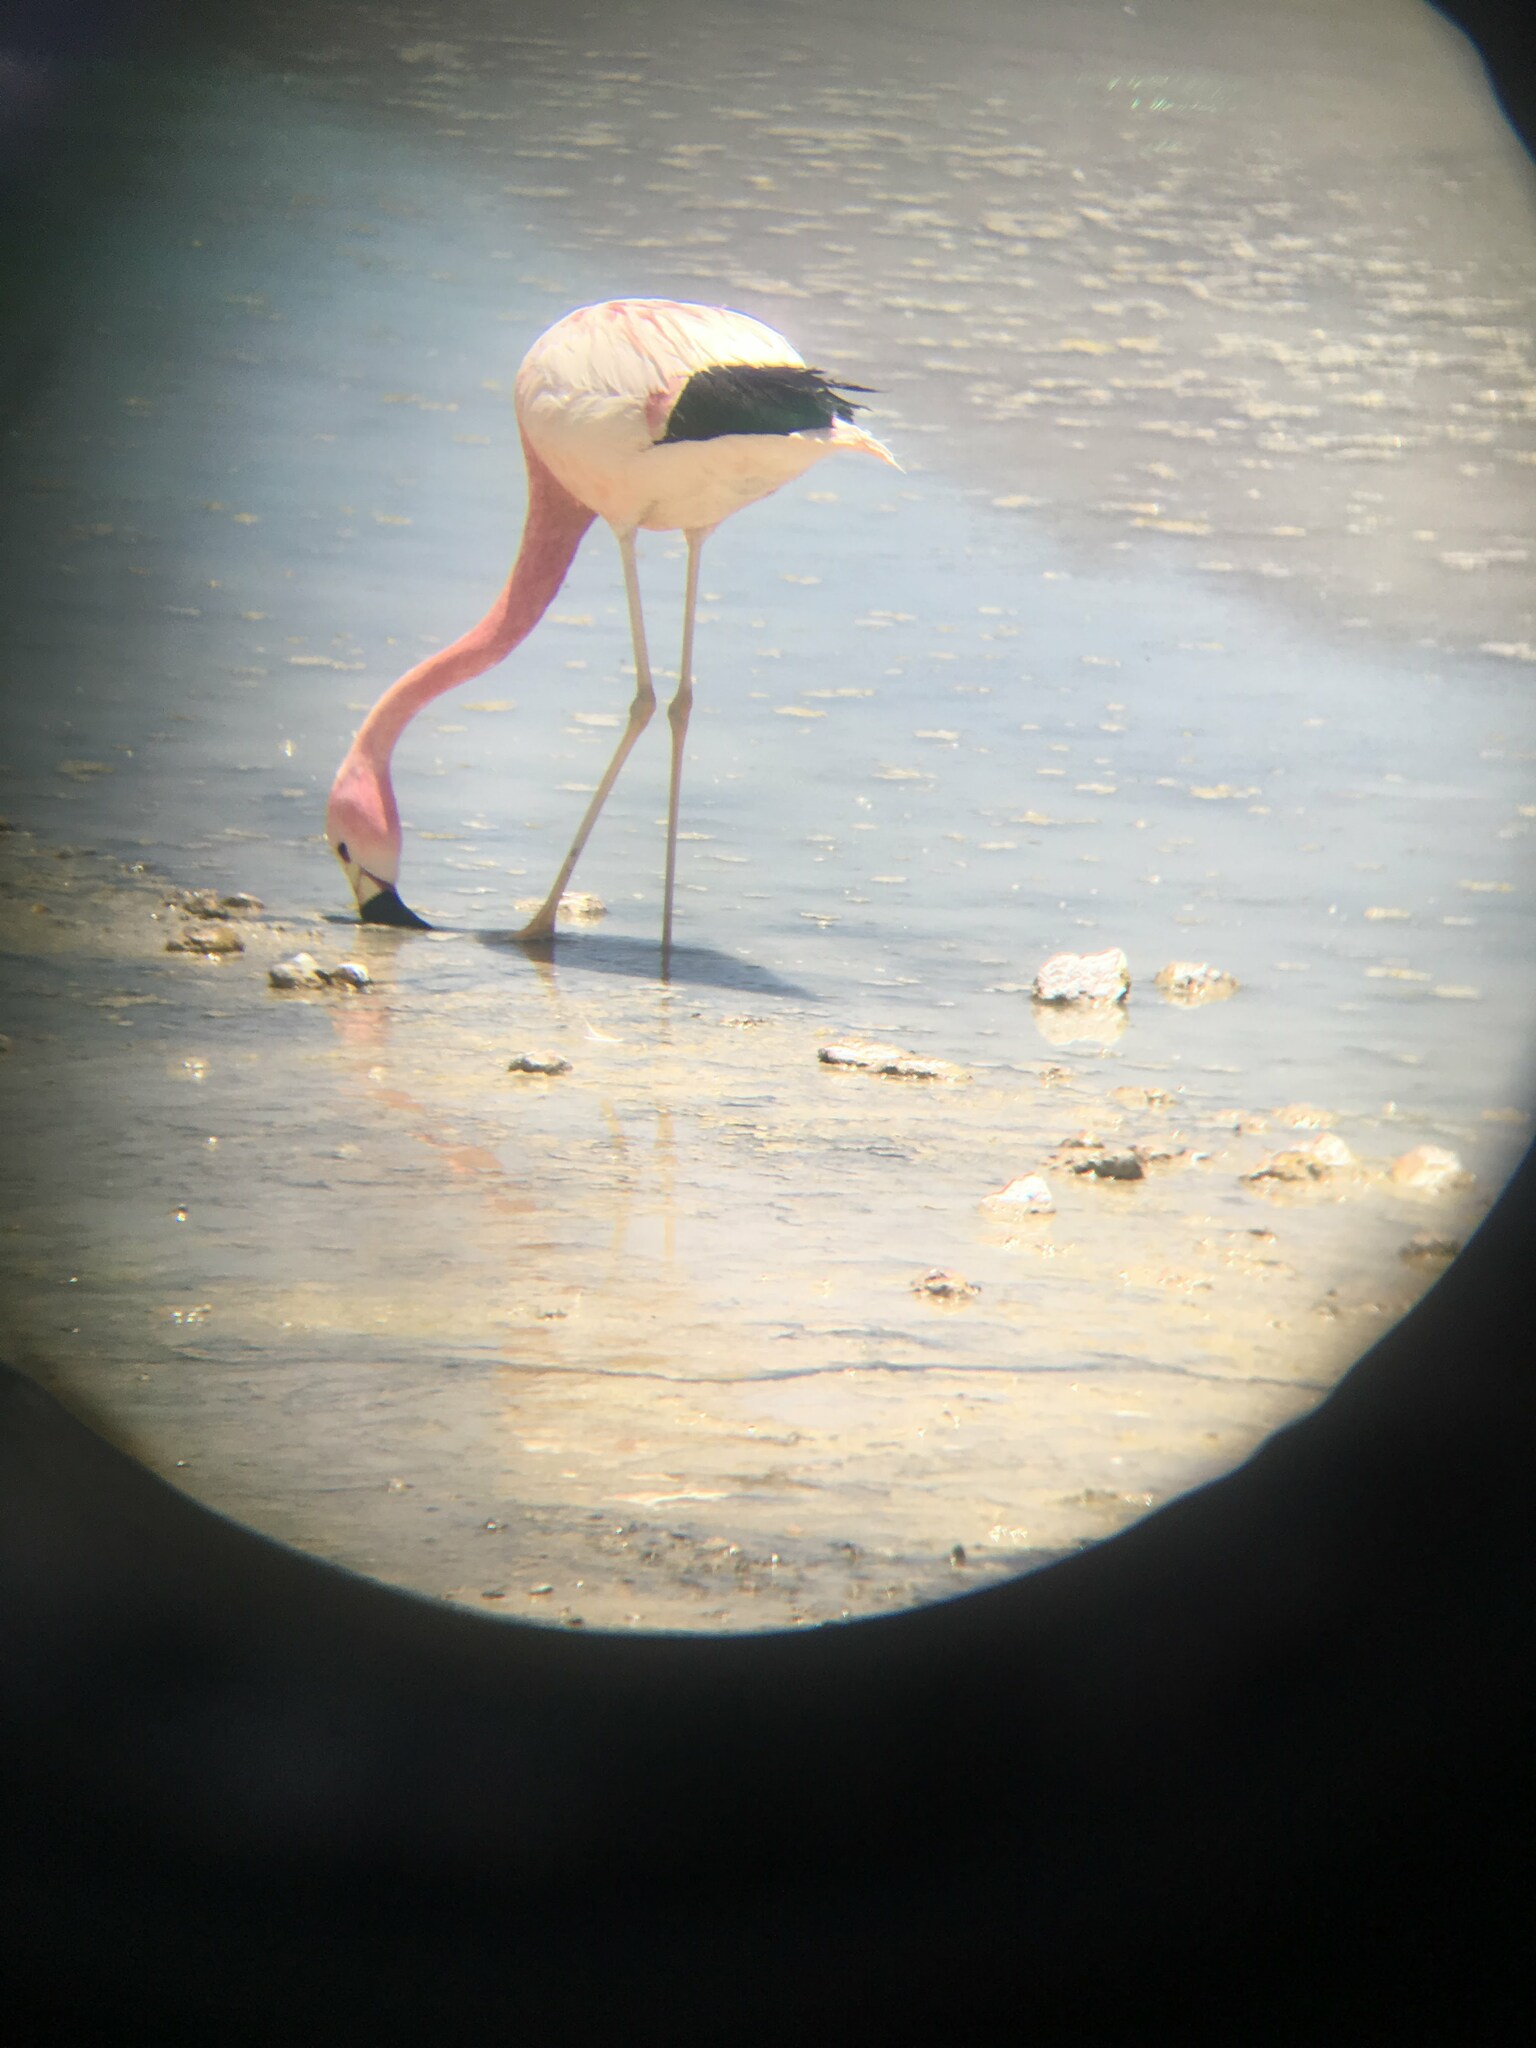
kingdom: Animalia
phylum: Chordata
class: Aves
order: Phoenicopteriformes
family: Phoenicopteridae
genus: Phoenicoparrus
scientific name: Phoenicoparrus andinus
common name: Andean flamingo
